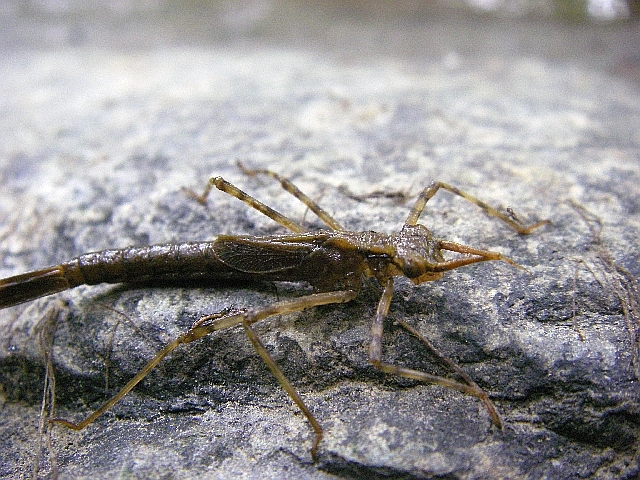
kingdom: Animalia
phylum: Arthropoda
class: Insecta
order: Odonata
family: Calopterygidae
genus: Calopteryx
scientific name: Calopteryx splendens
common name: Banded demoiselle
